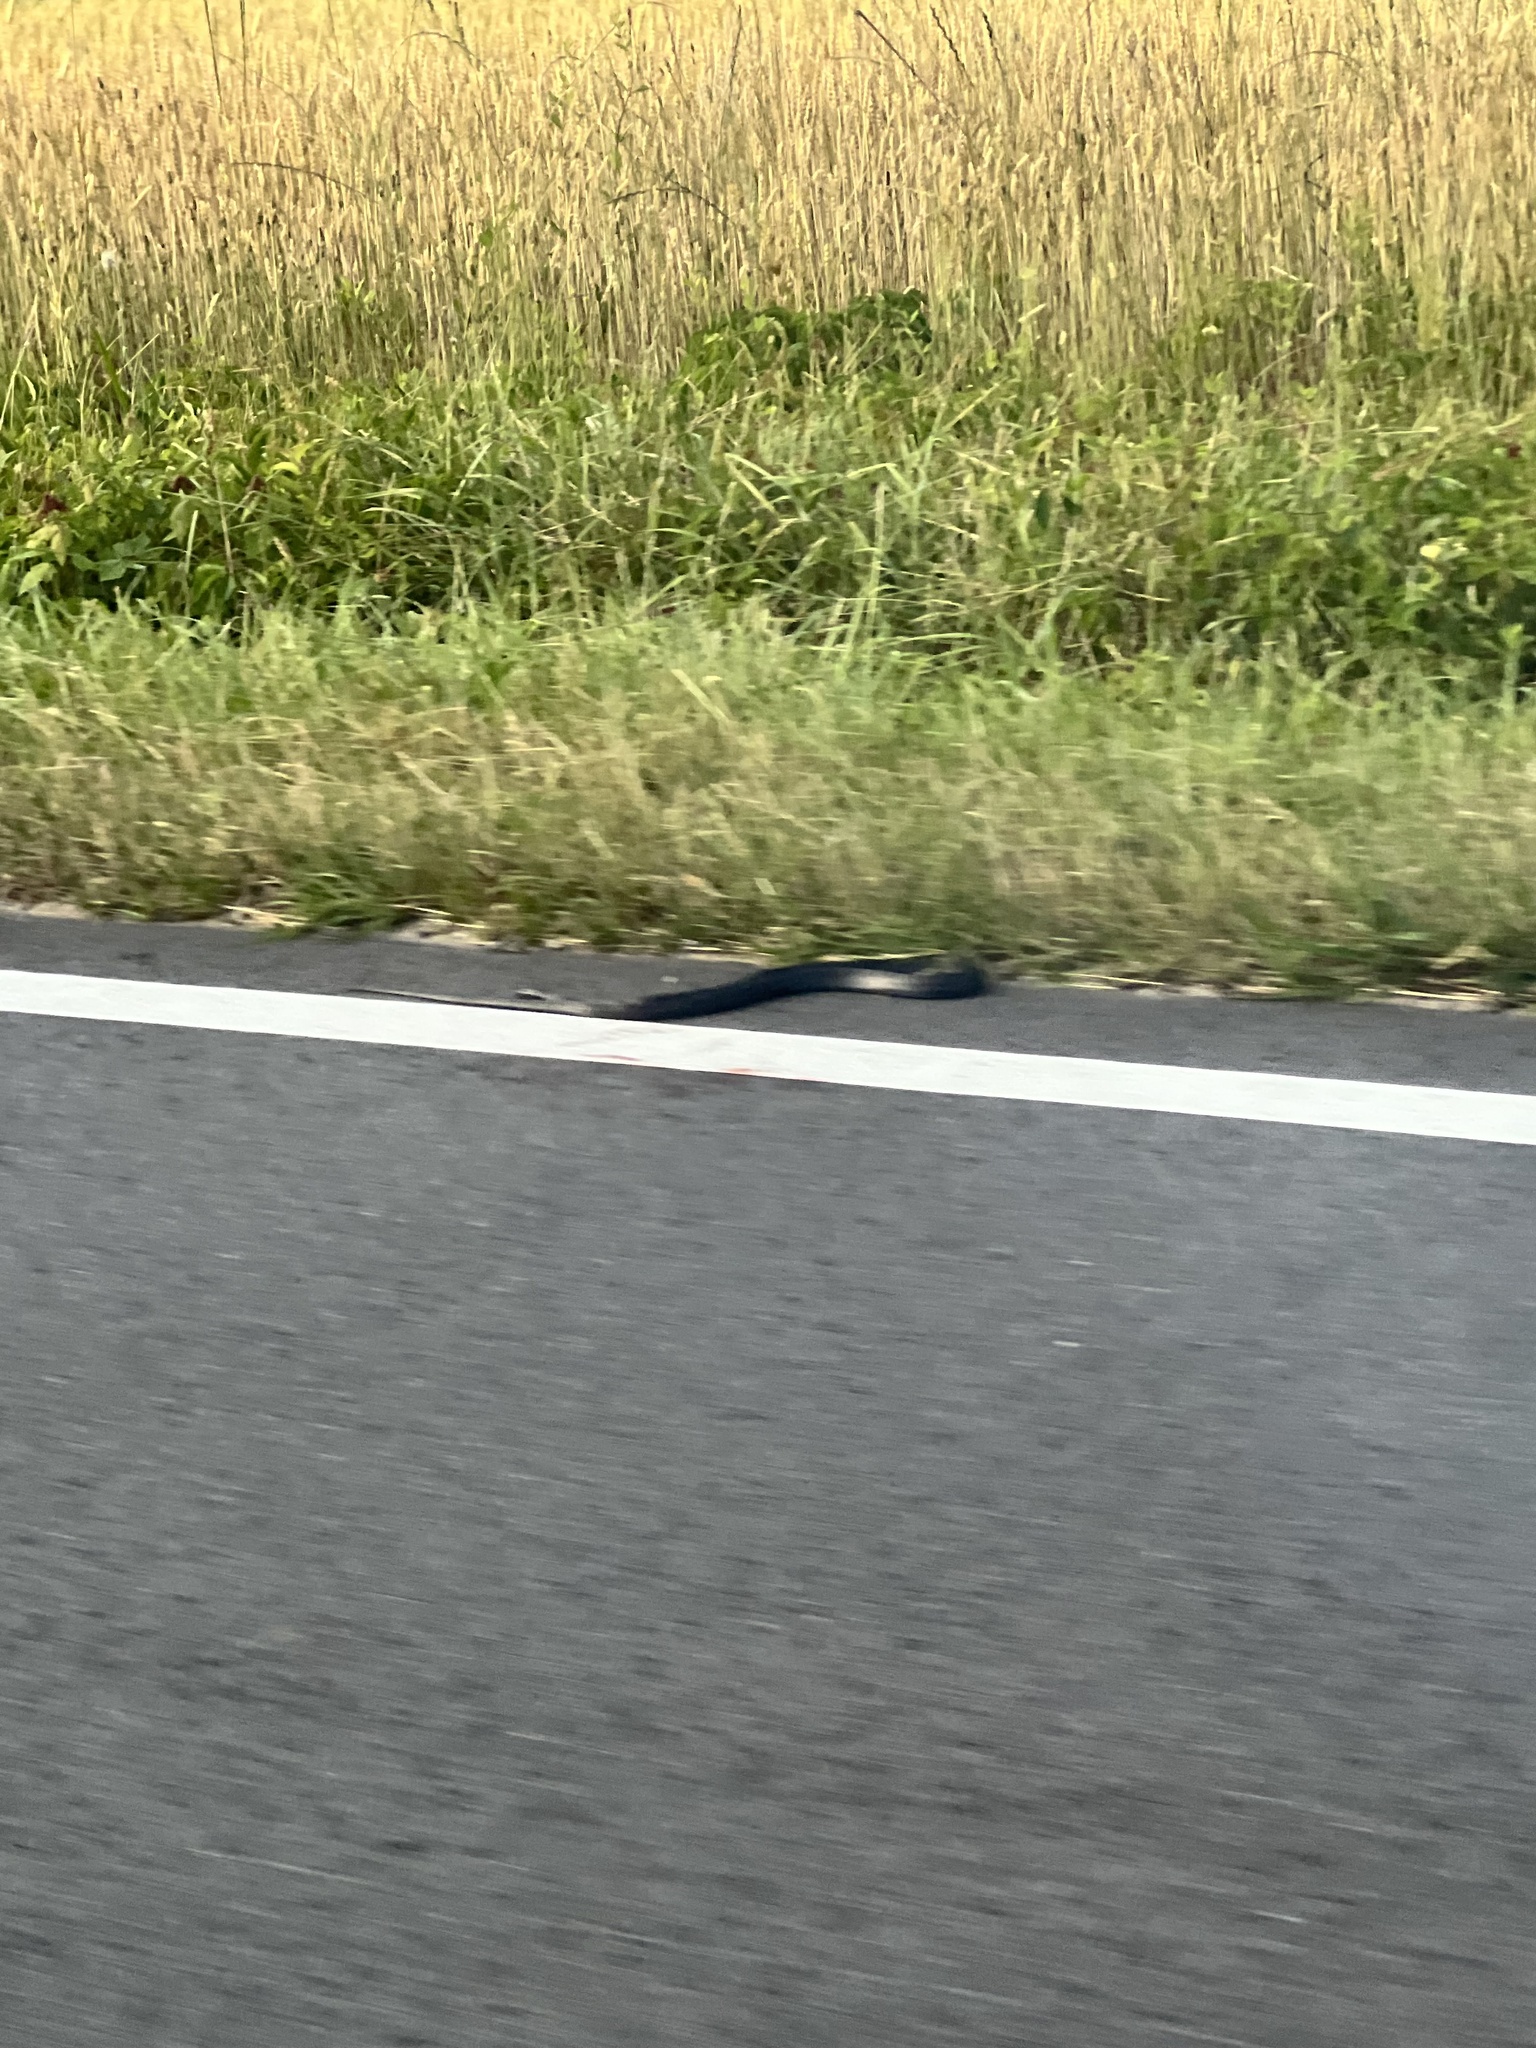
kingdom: Animalia
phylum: Chordata
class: Squamata
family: Colubridae
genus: Coluber
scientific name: Coluber constrictor
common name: Eastern racer
